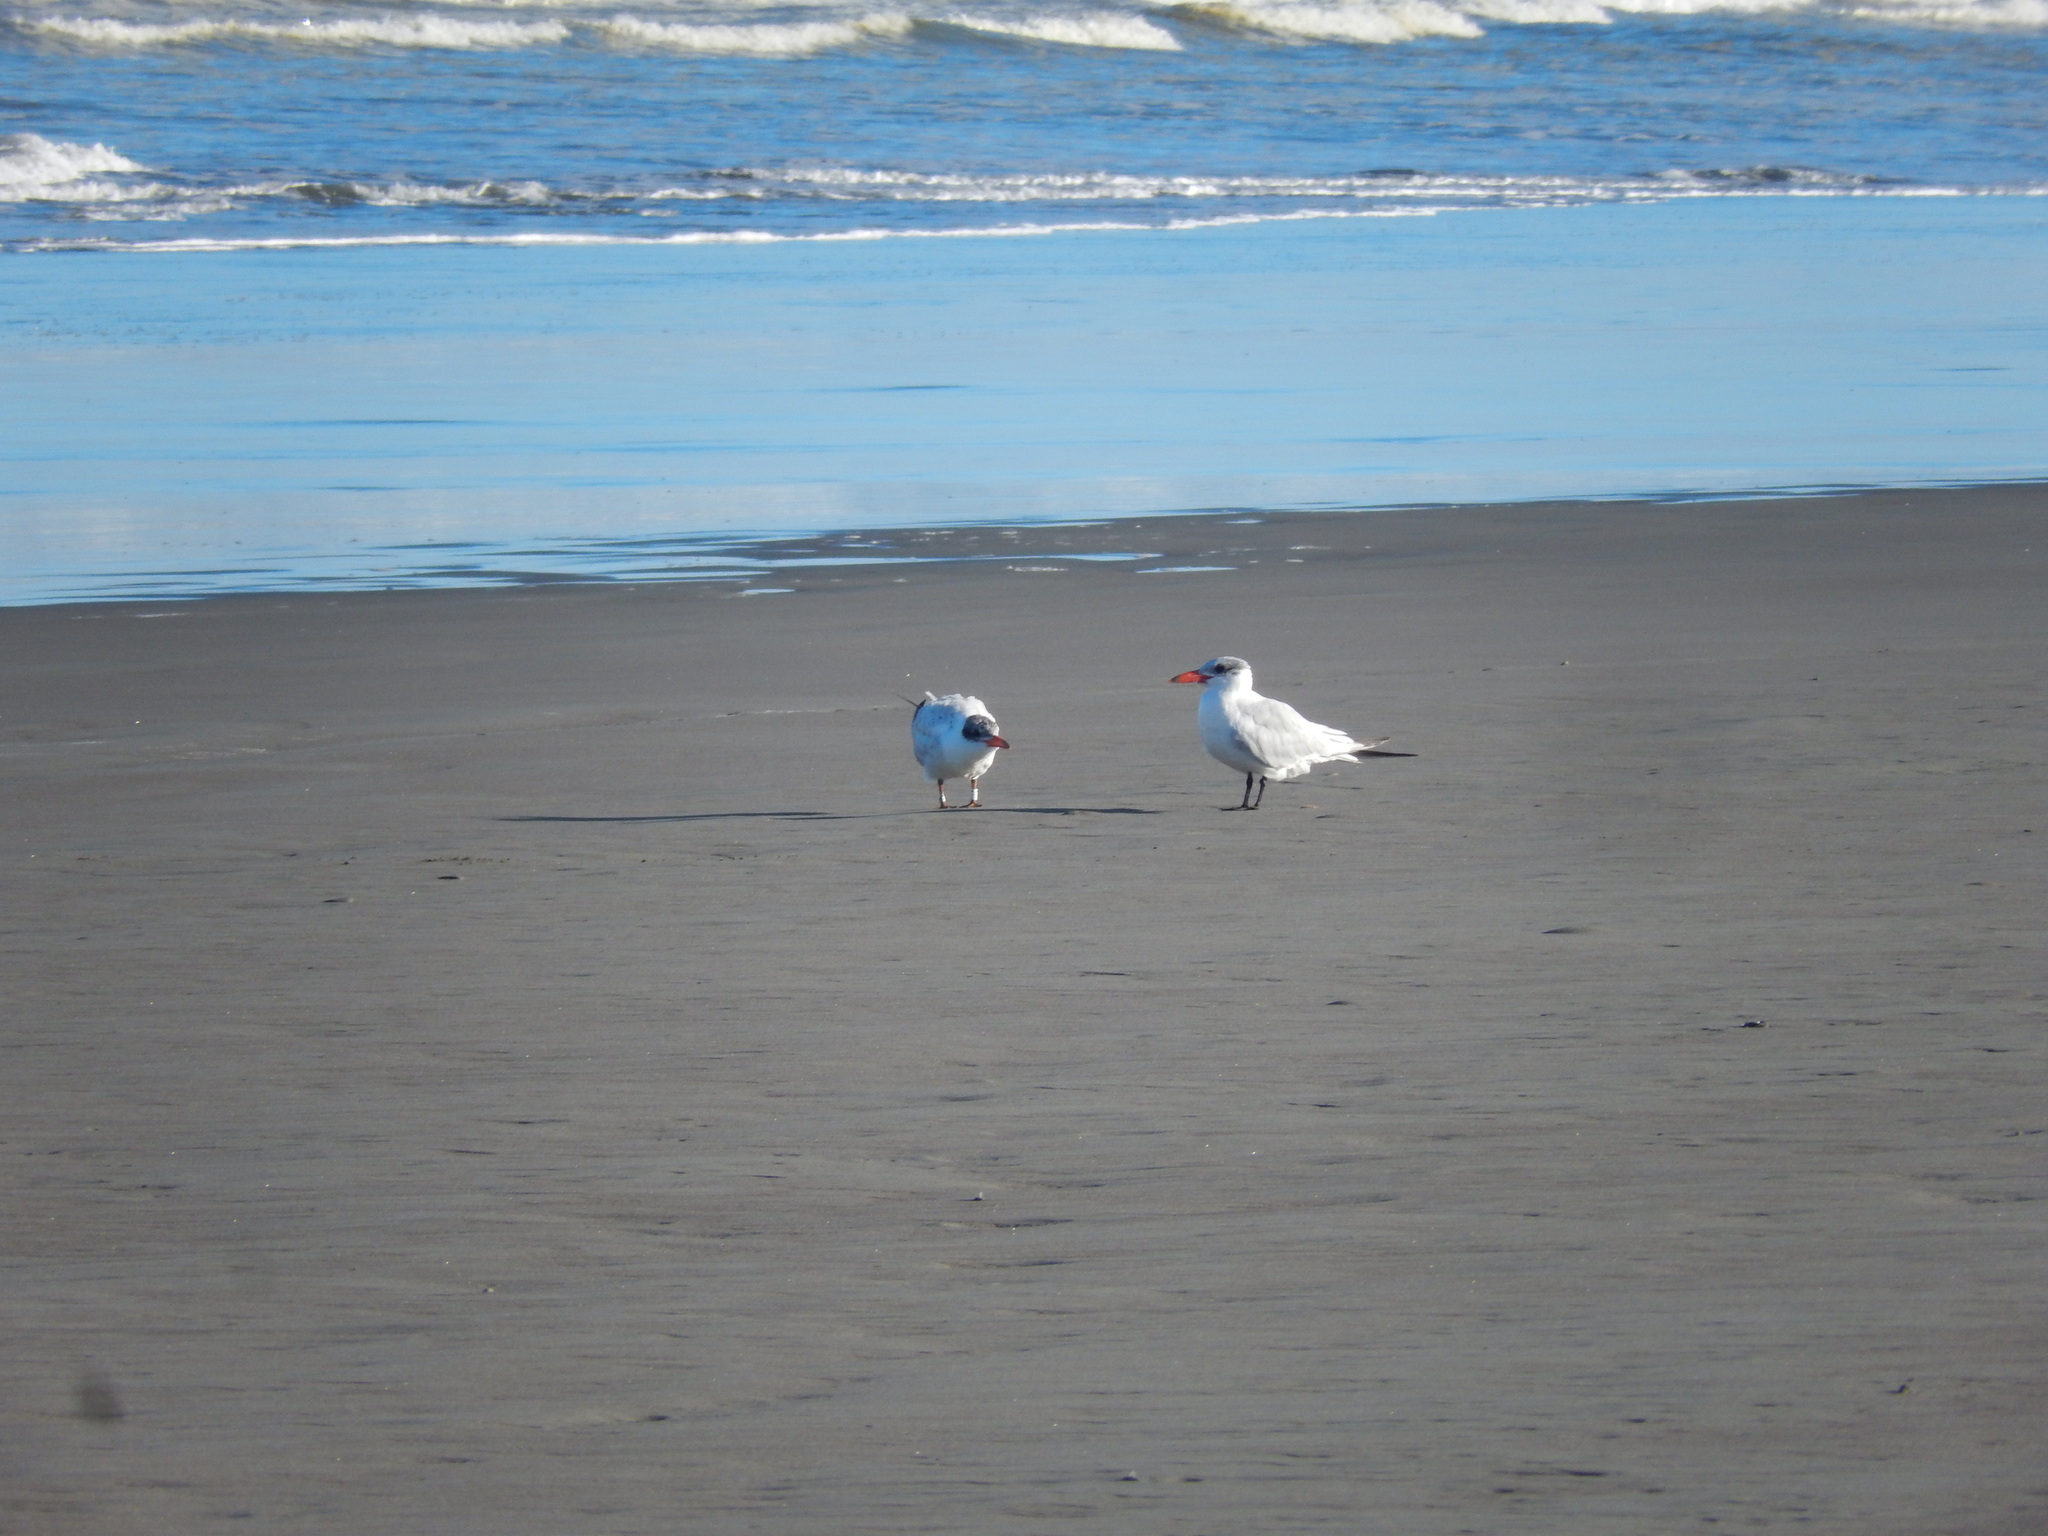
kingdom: Animalia
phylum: Chordata
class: Aves
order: Charadriiformes
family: Laridae
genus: Hydroprogne
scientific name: Hydroprogne caspia
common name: Caspian tern
